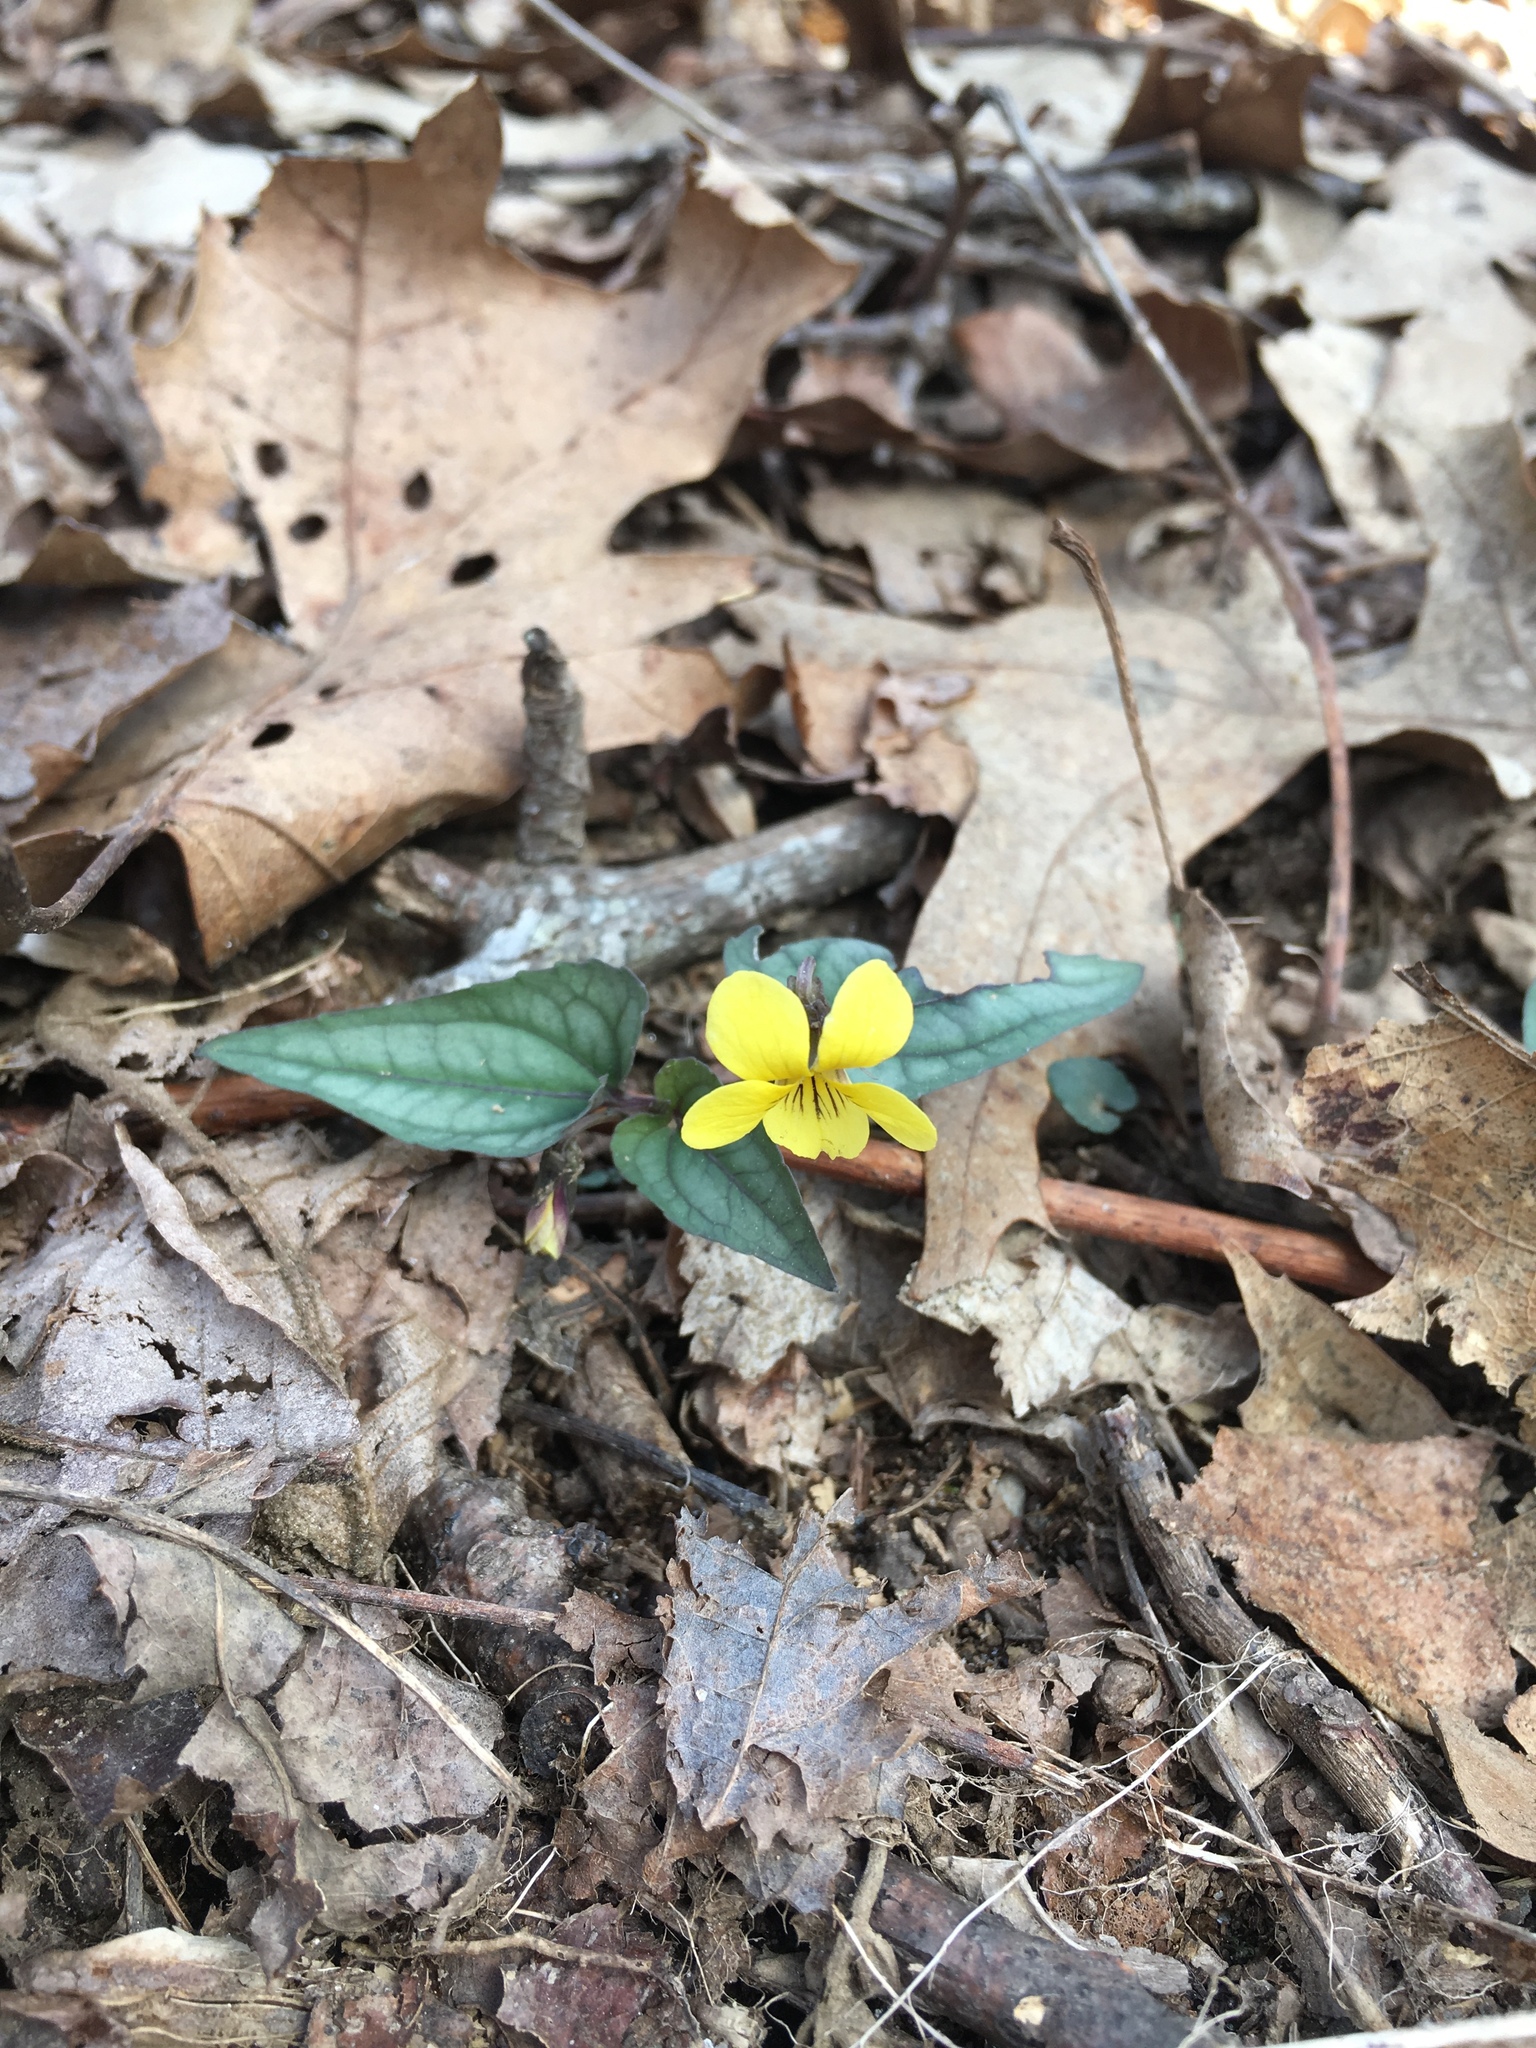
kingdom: Plantae
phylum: Tracheophyta
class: Magnoliopsida
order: Malpighiales
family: Violaceae
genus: Viola
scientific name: Viola hastata
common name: Spear-leaf violet
